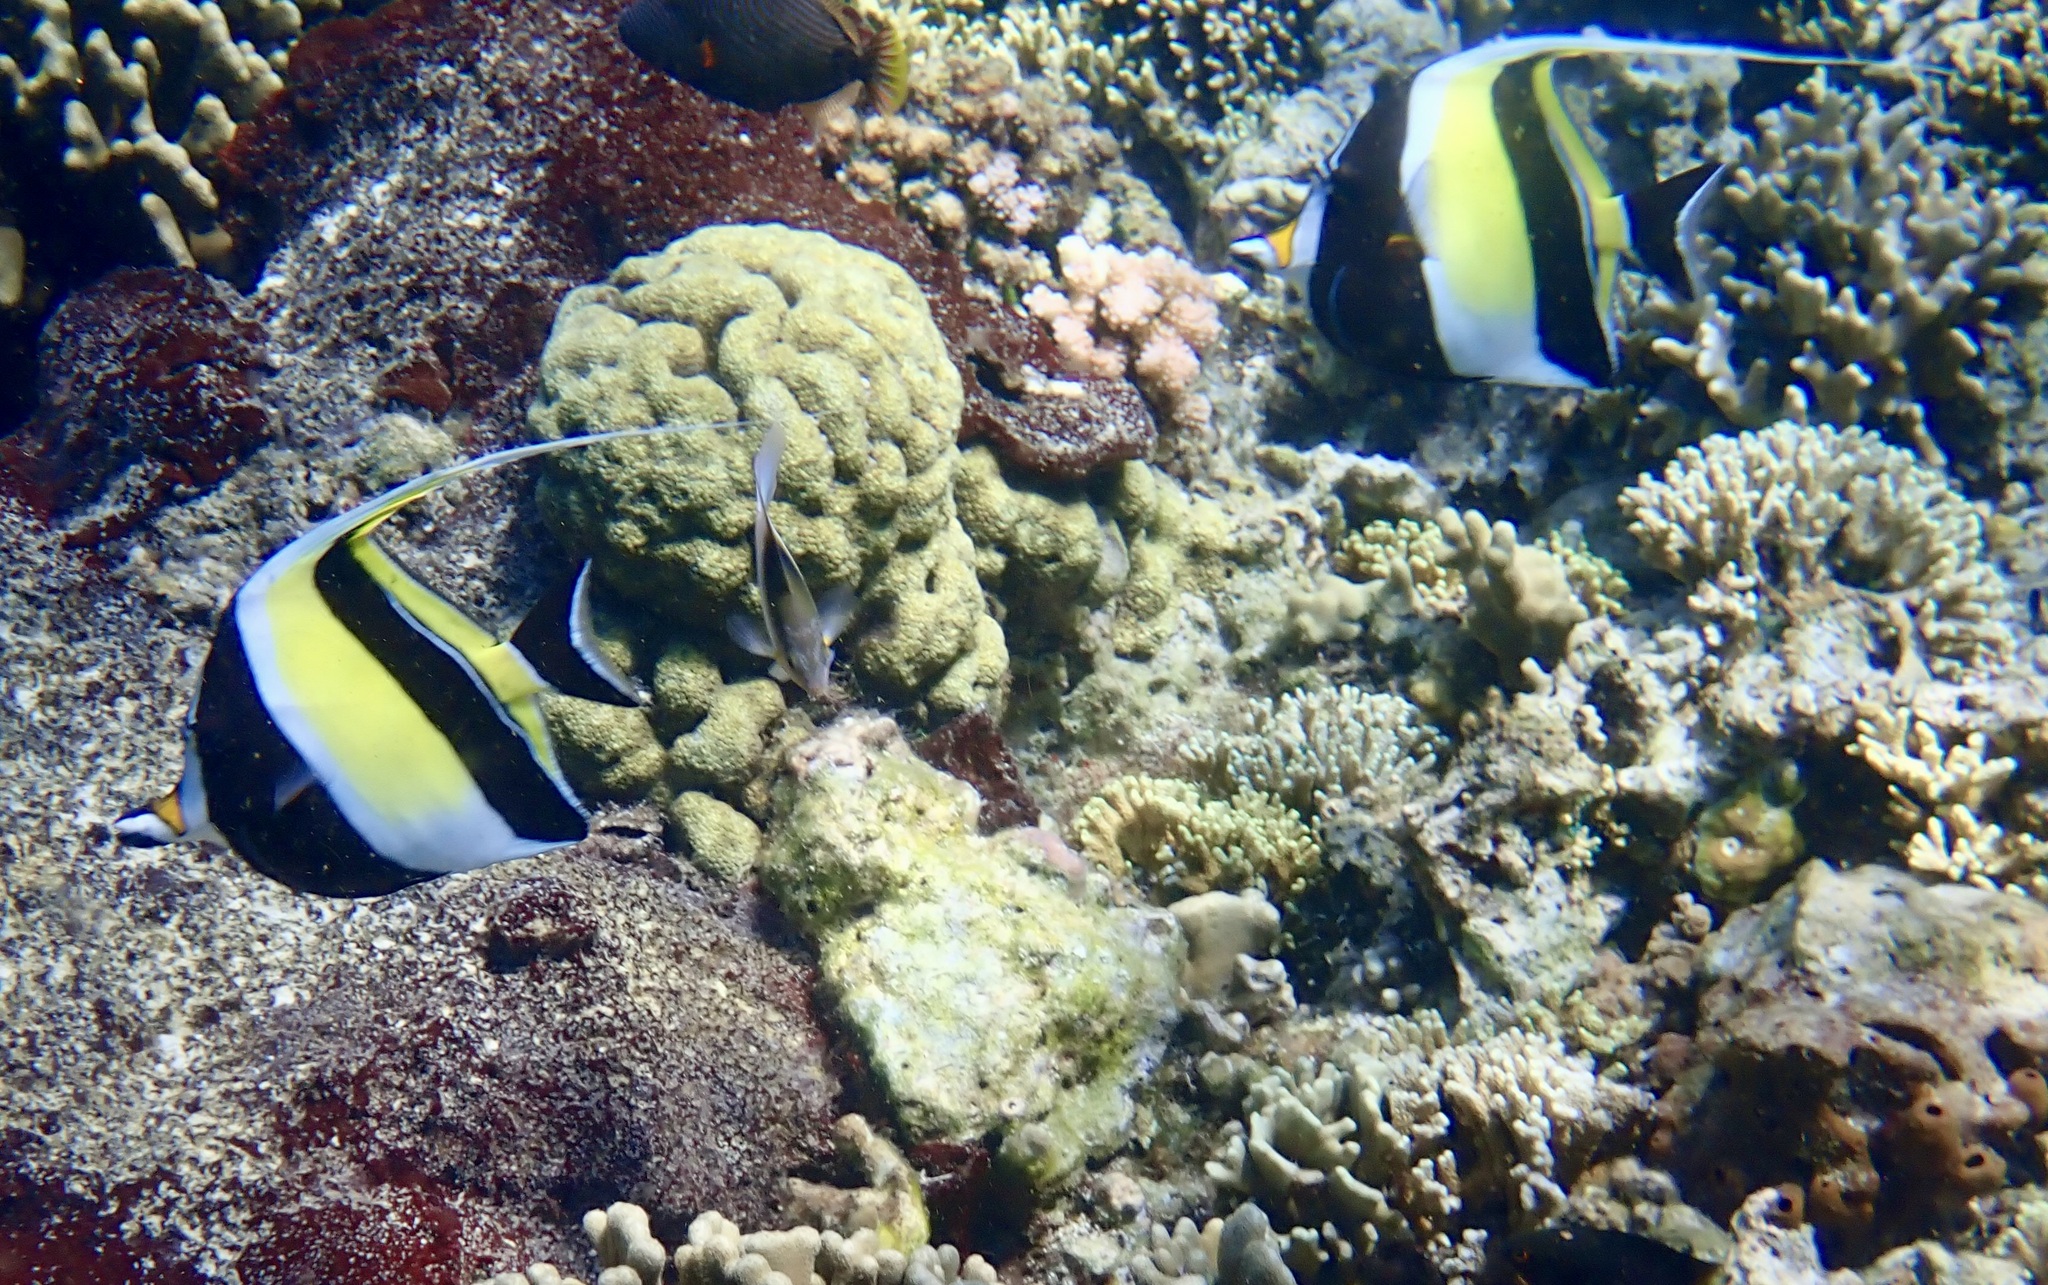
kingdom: Animalia
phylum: Chordata
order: Perciformes
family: Zanclidae
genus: Zanclus
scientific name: Zanclus cornutus
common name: Moorish idol
